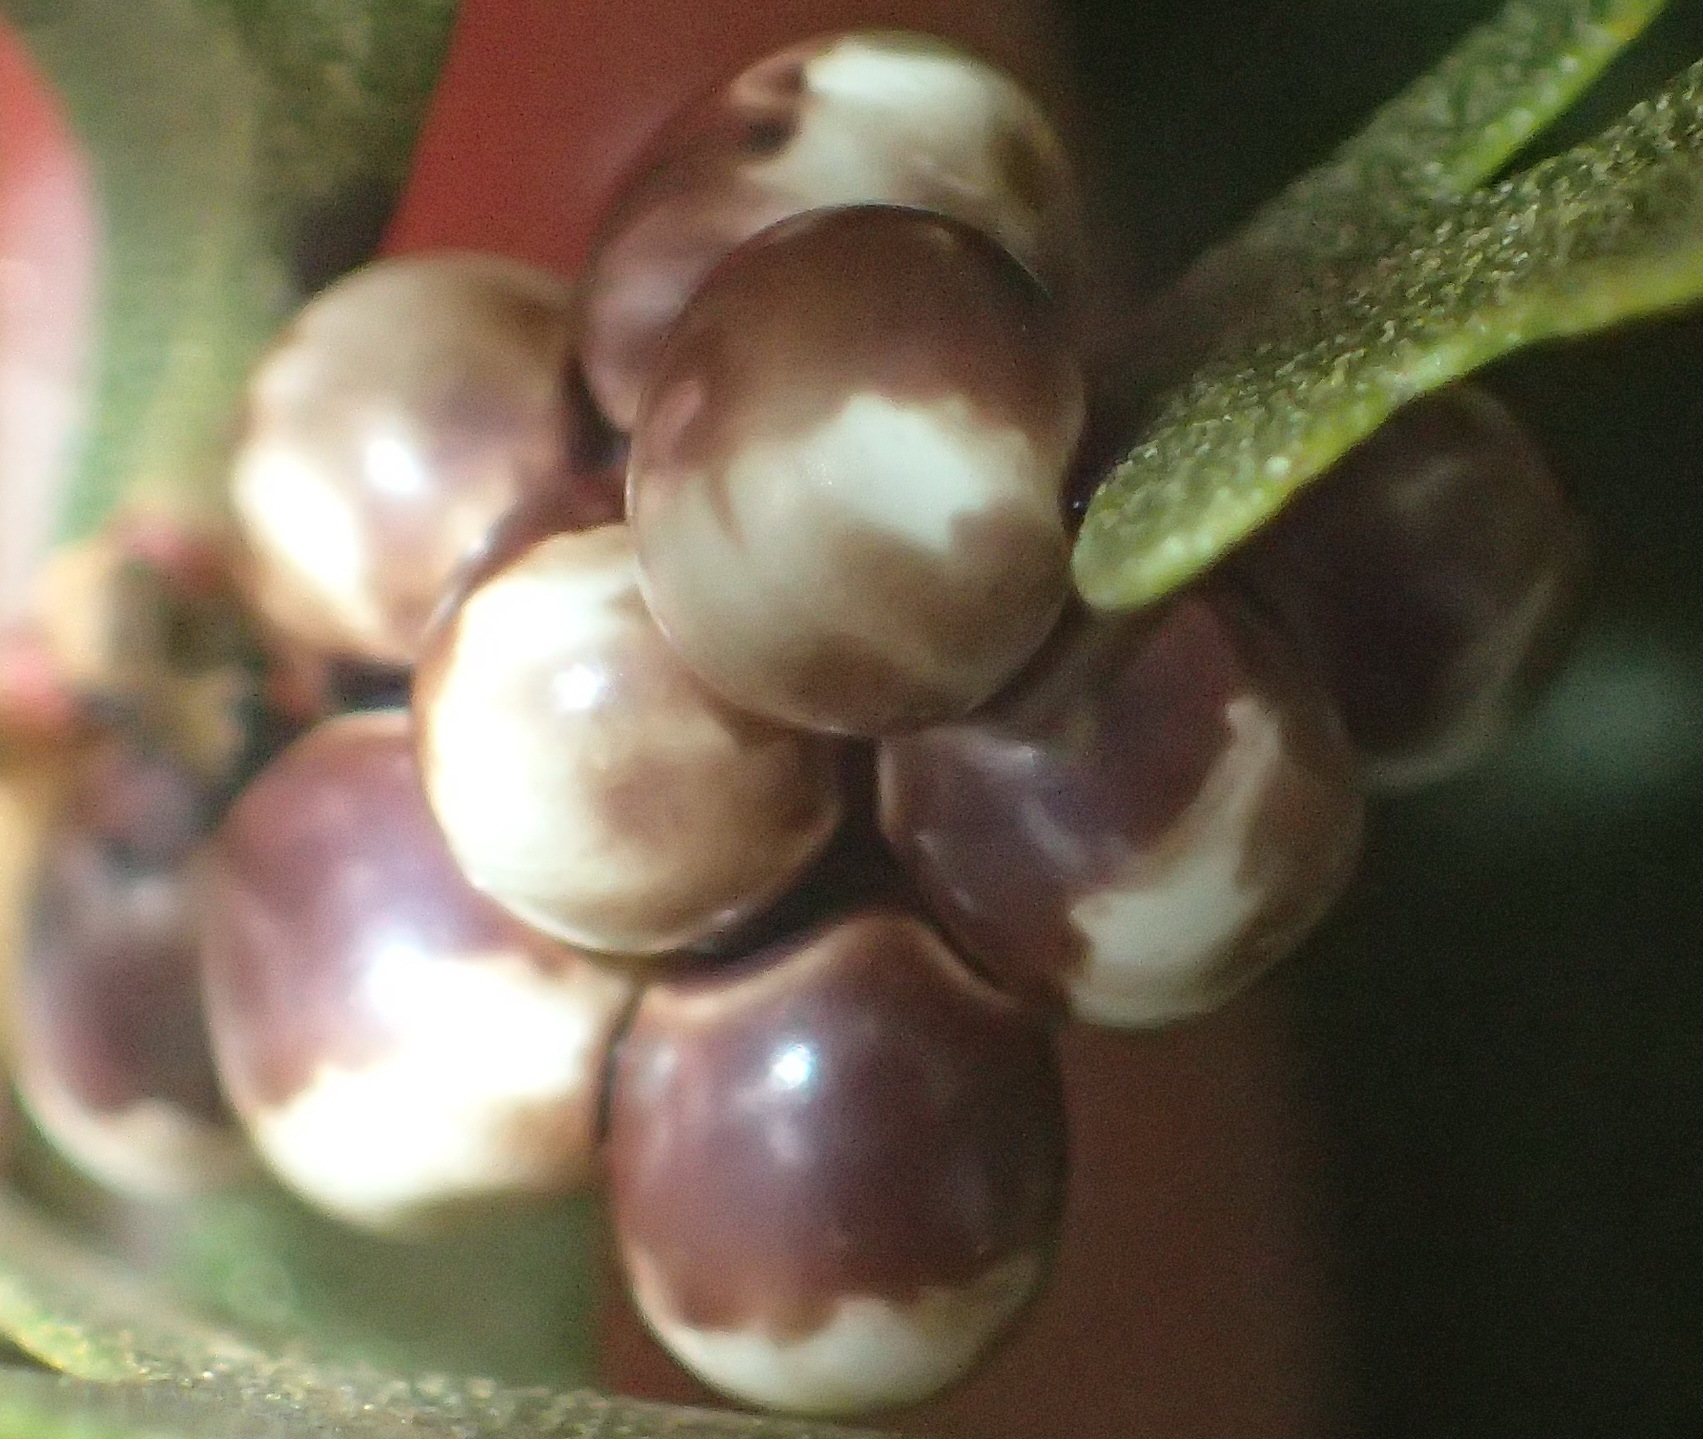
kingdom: Animalia
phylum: Arthropoda
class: Insecta
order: Lepidoptera
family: Saturniidae
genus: Nudaurelia
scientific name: Nudaurelia cytherea
